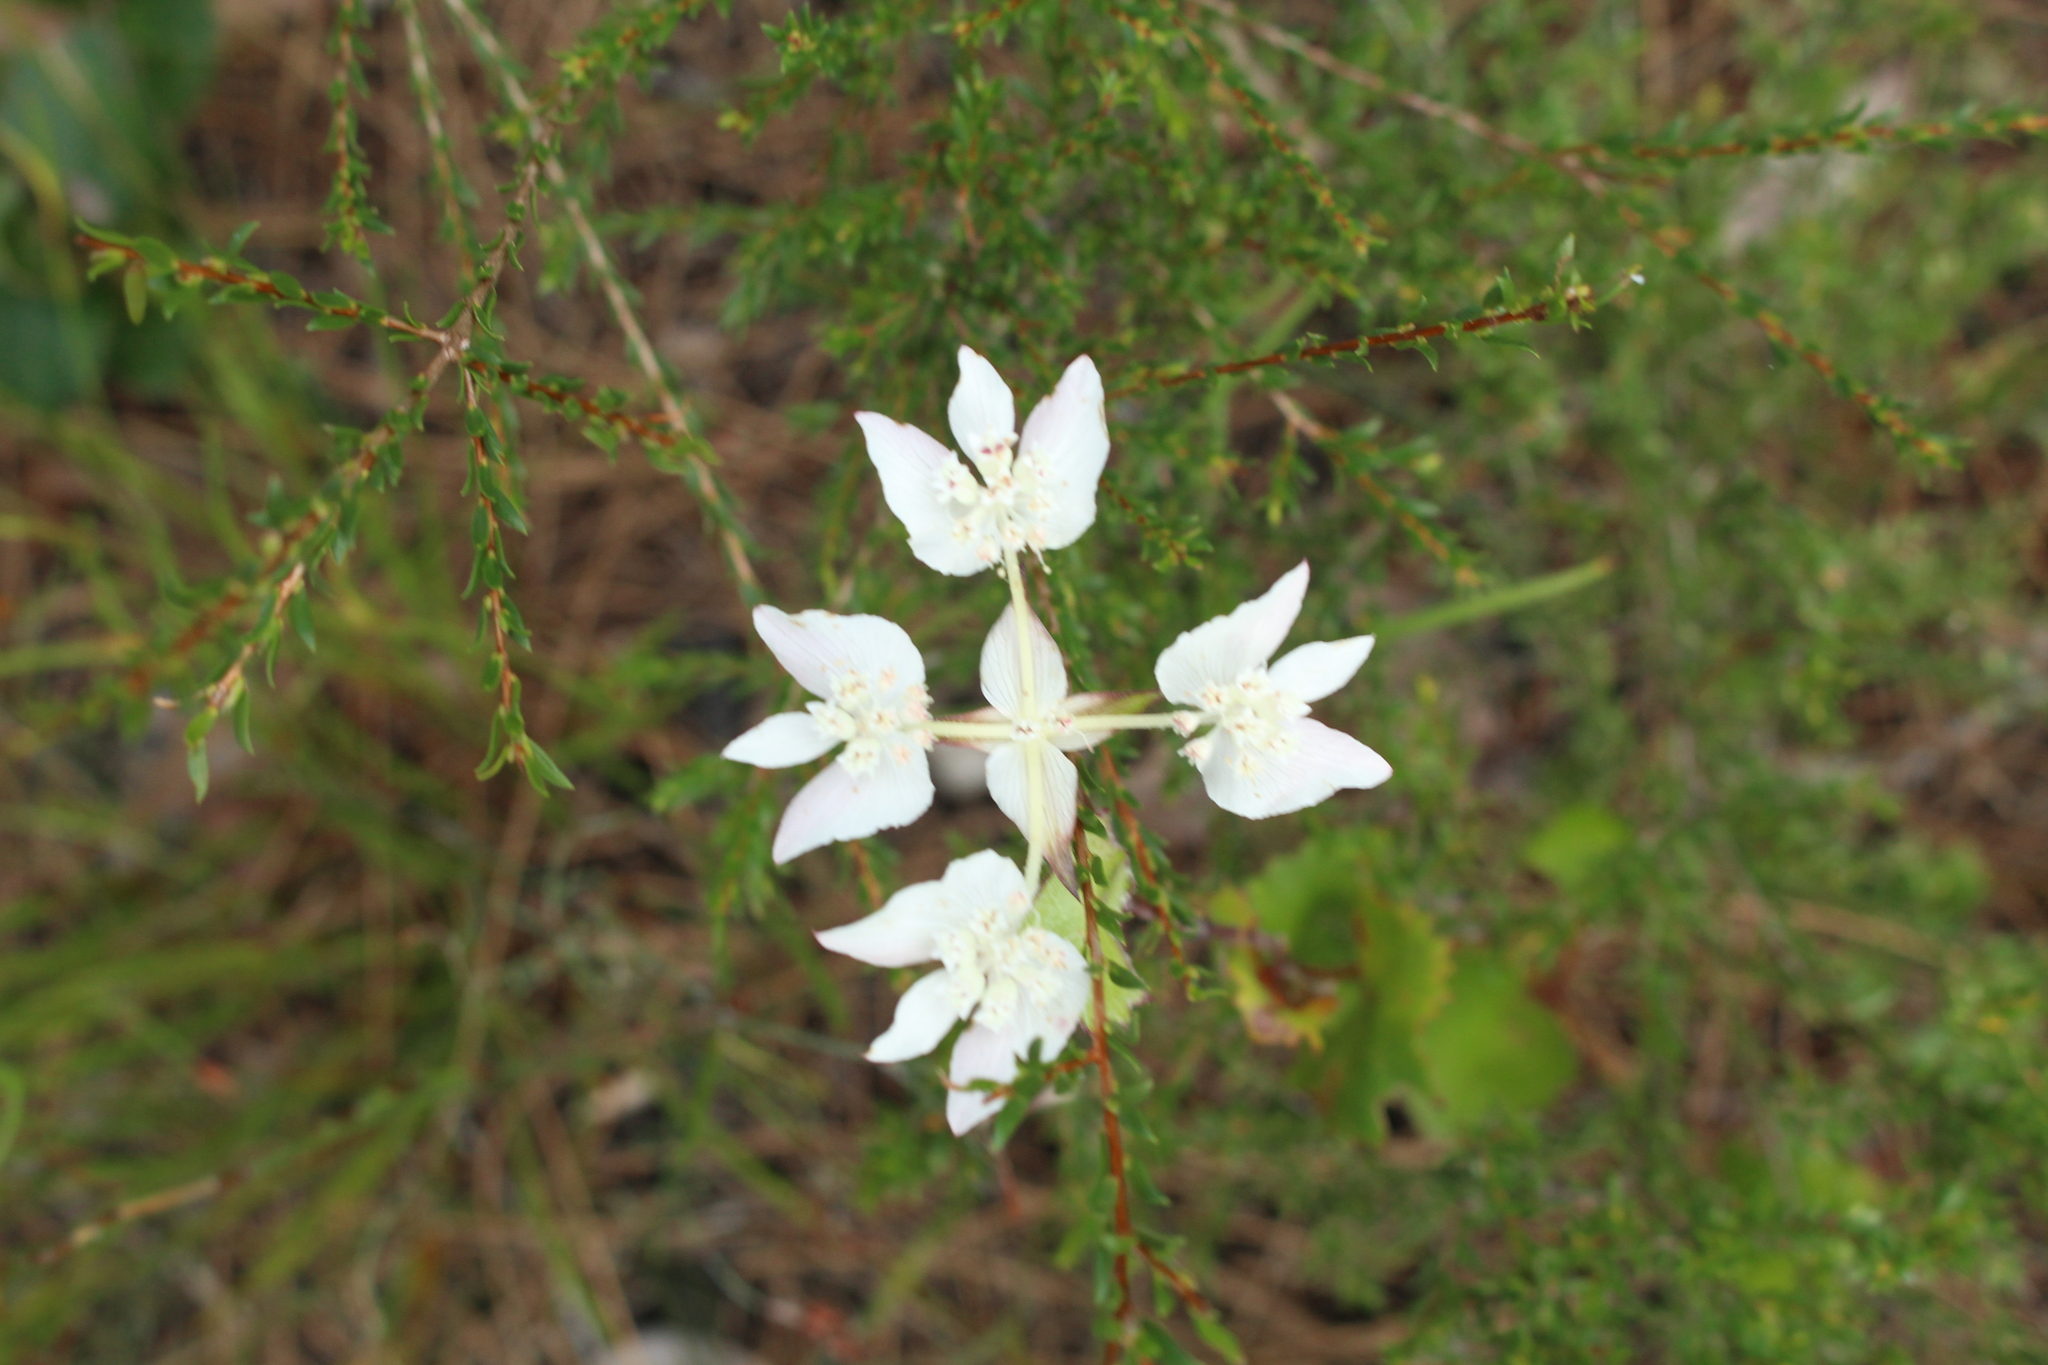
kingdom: Plantae
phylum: Tracheophyta
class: Magnoliopsida
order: Apiales
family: Apiaceae
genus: Xanthosia
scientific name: Xanthosia rotundifolia
